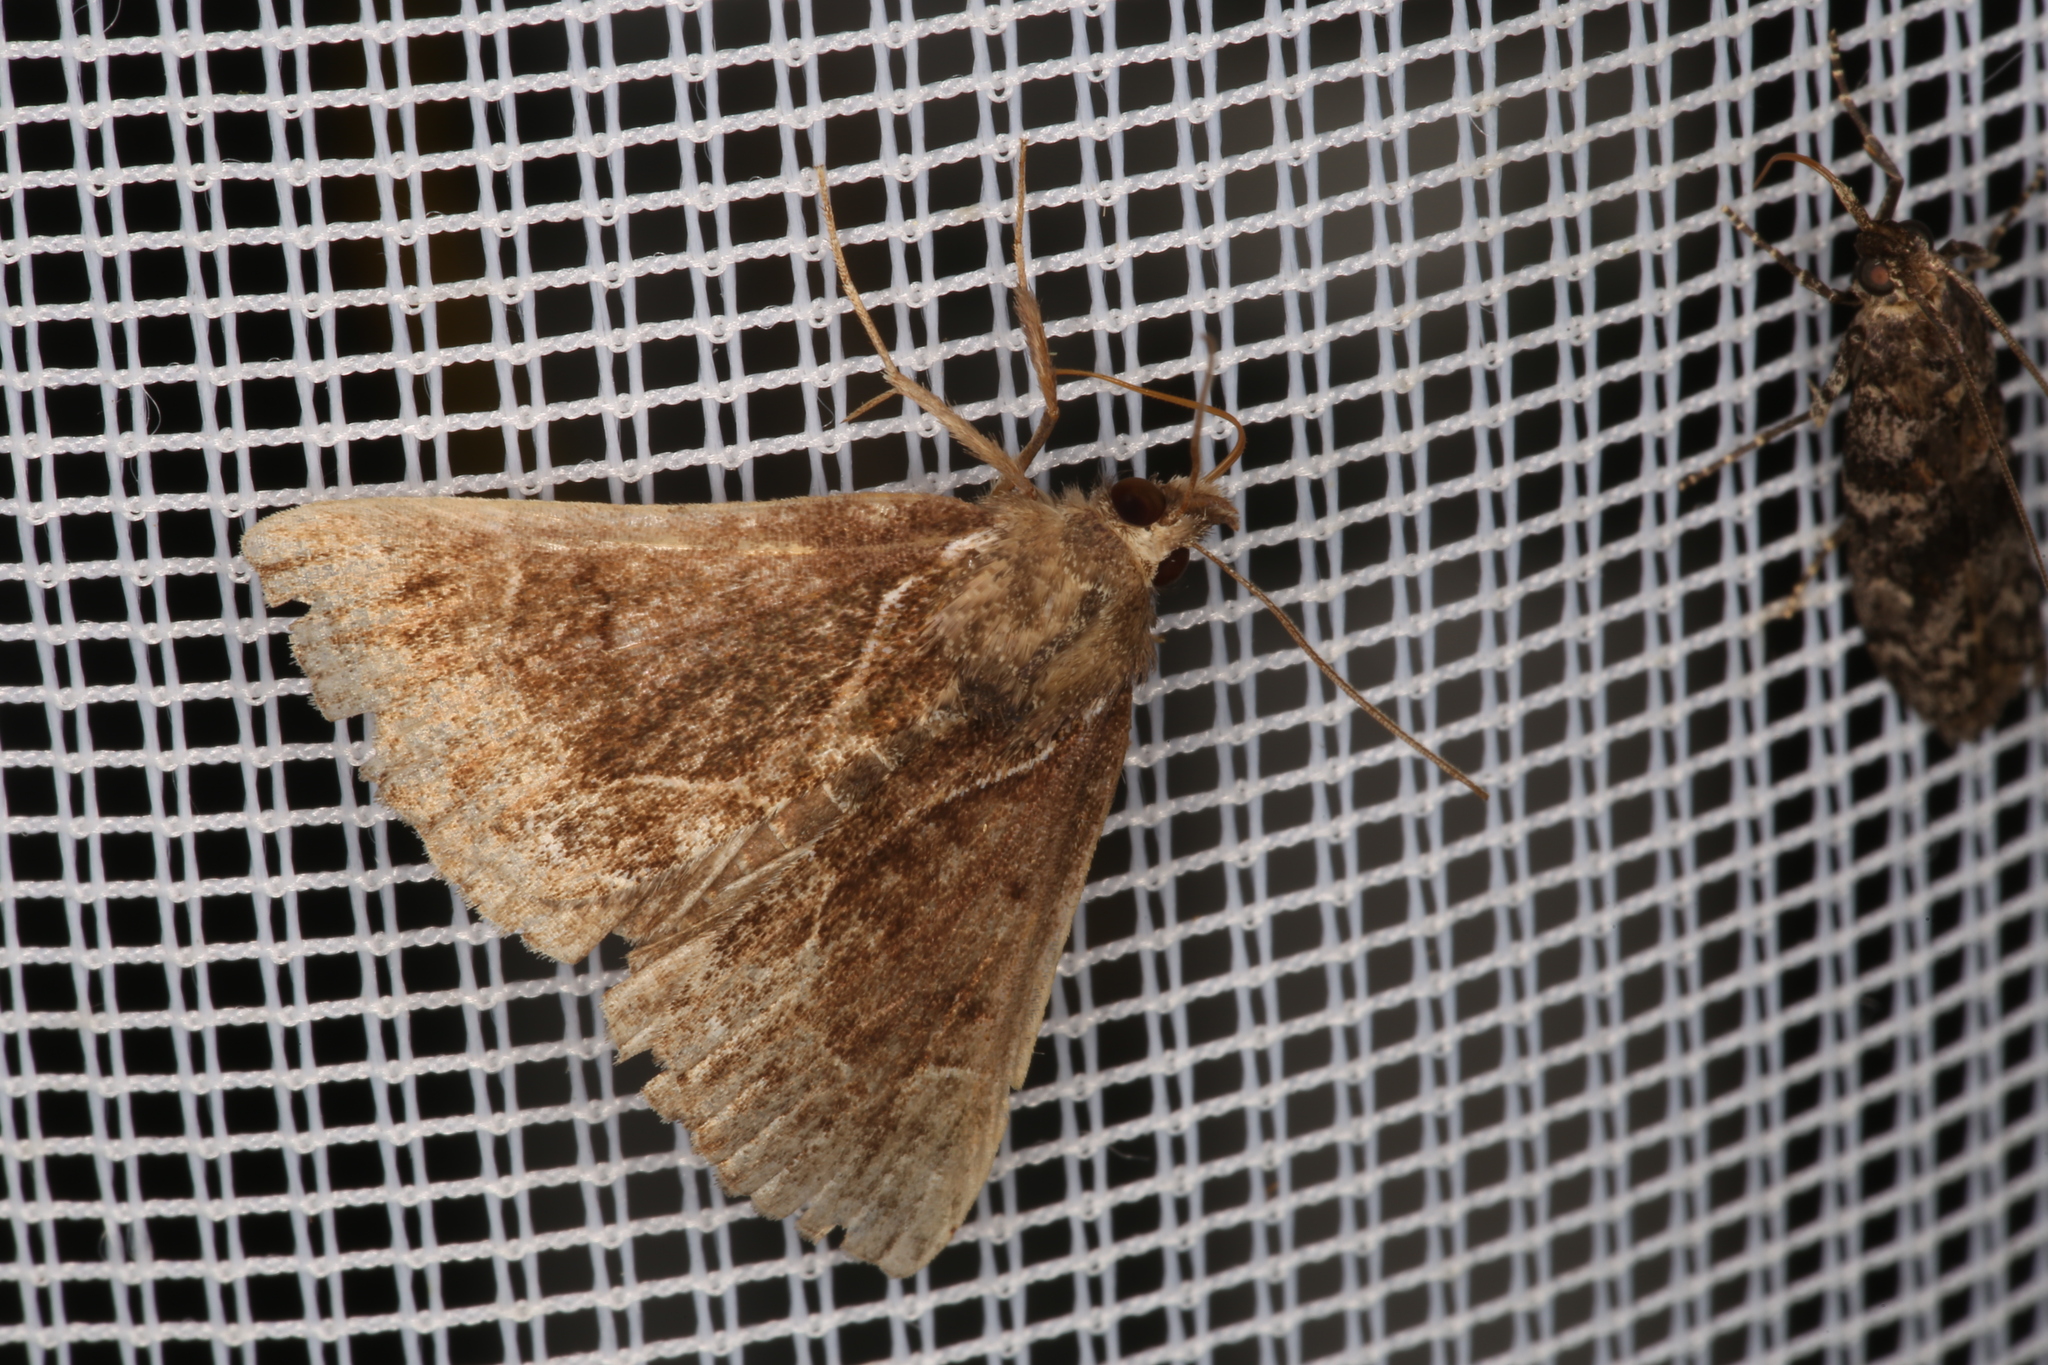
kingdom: Animalia
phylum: Arthropoda
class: Insecta
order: Lepidoptera
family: Erebidae
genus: Hypena
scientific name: Hypena crassalis
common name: Beautiful snout
